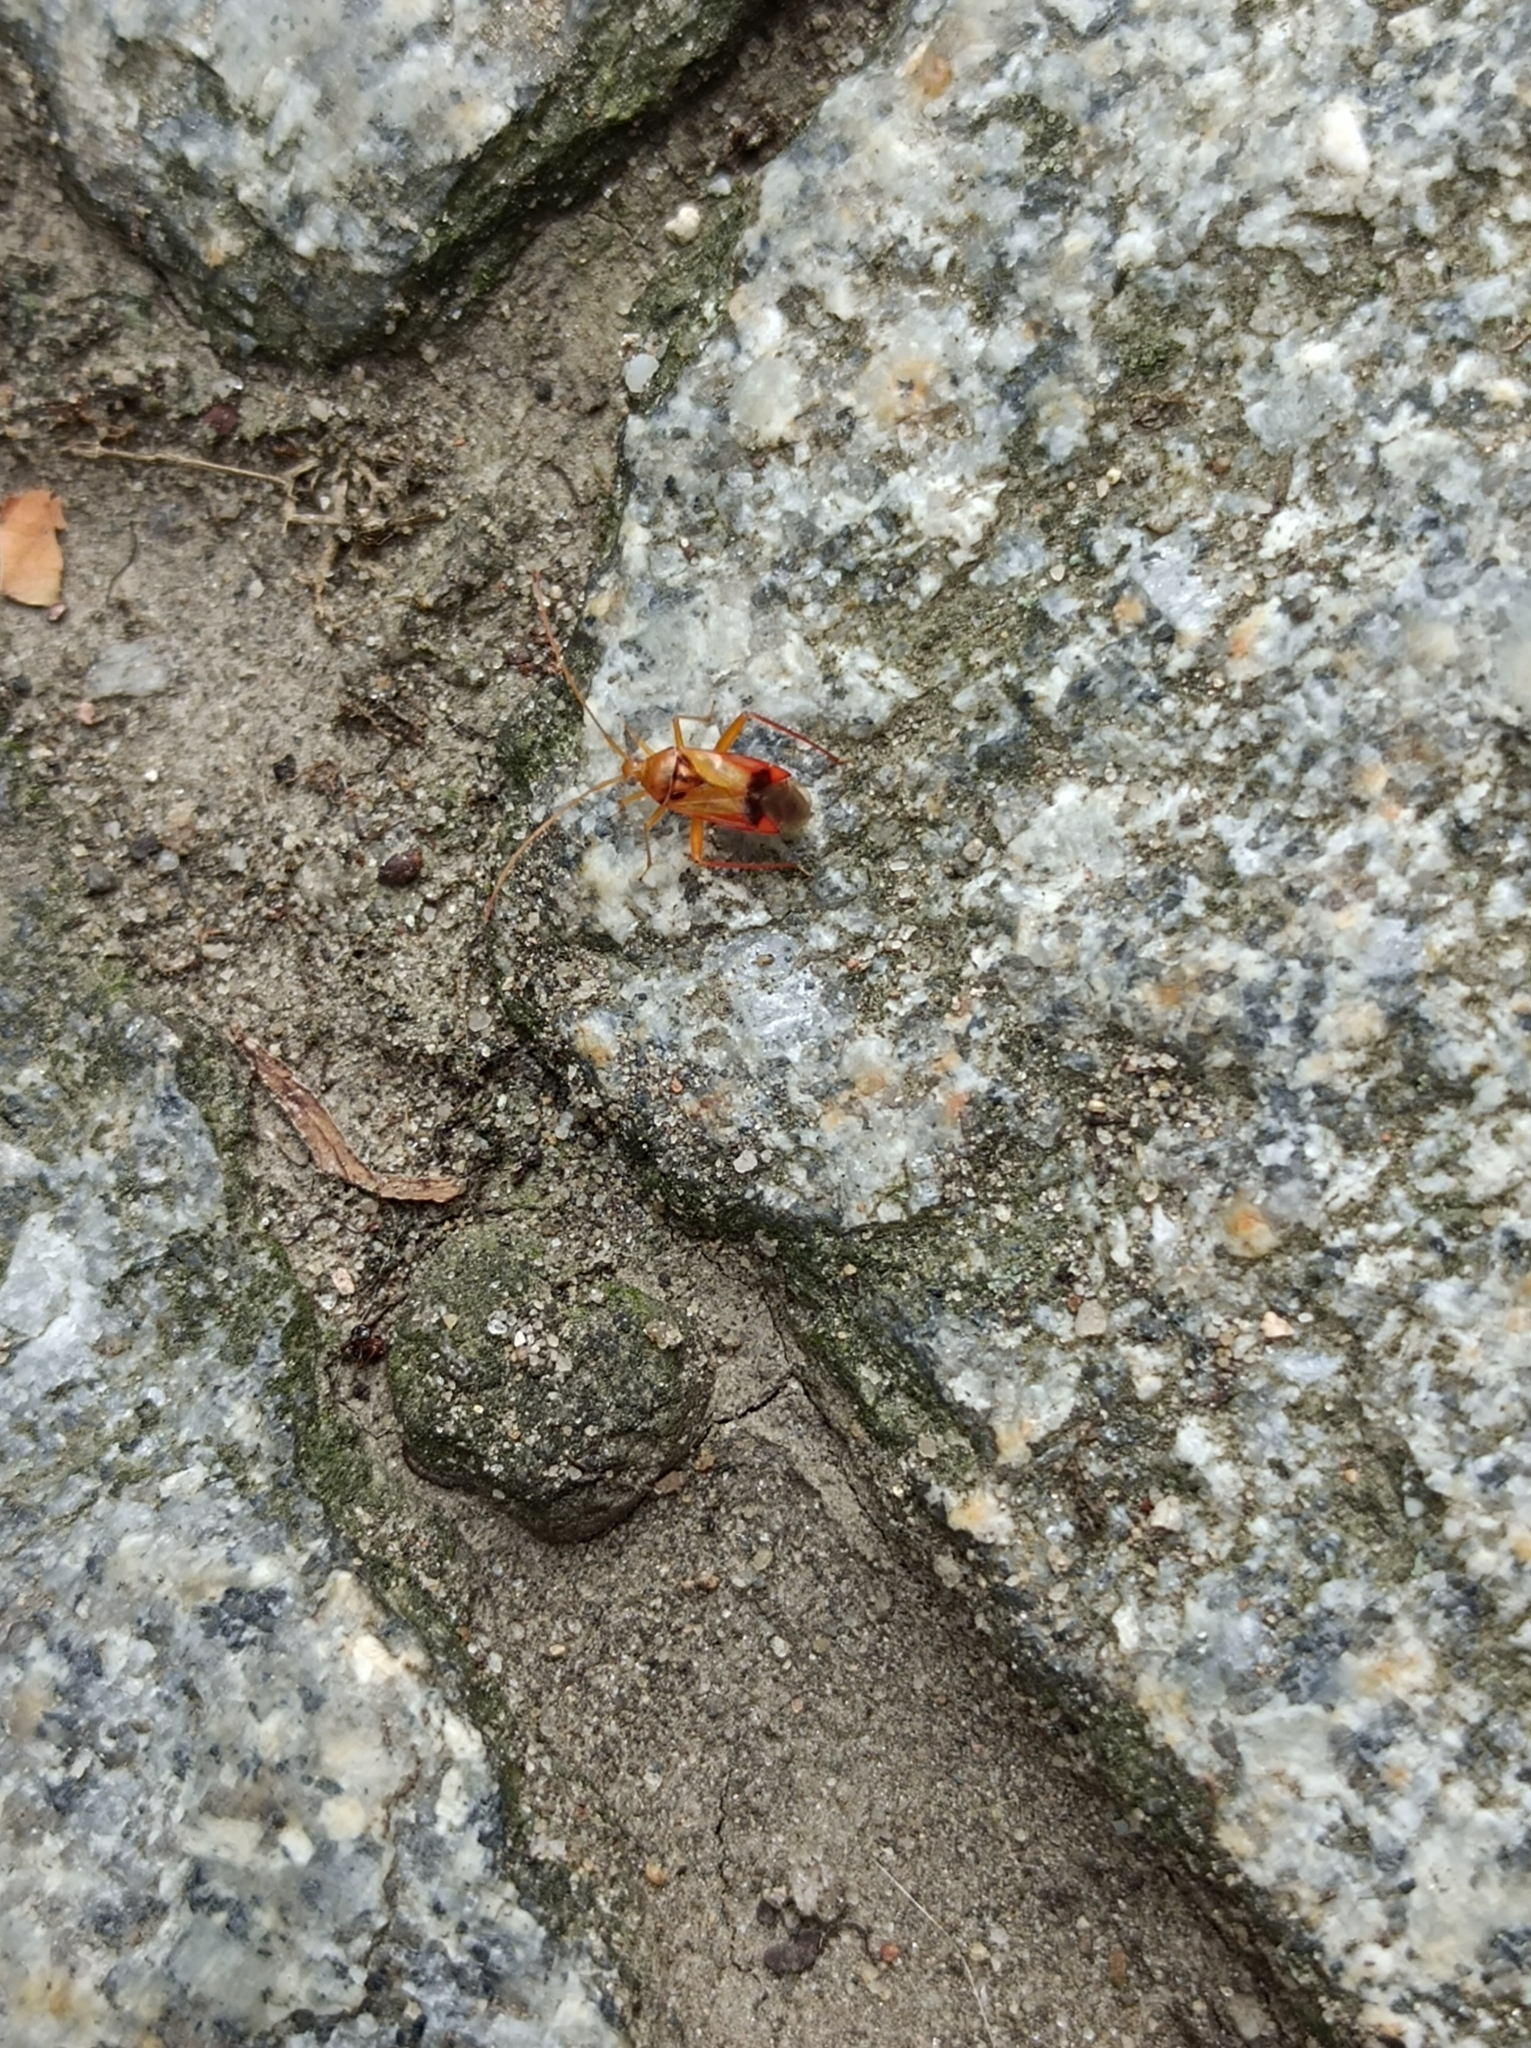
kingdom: Animalia
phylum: Arthropoda
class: Insecta
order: Hemiptera
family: Miridae
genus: Megacoelum
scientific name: Megacoelum infusum
